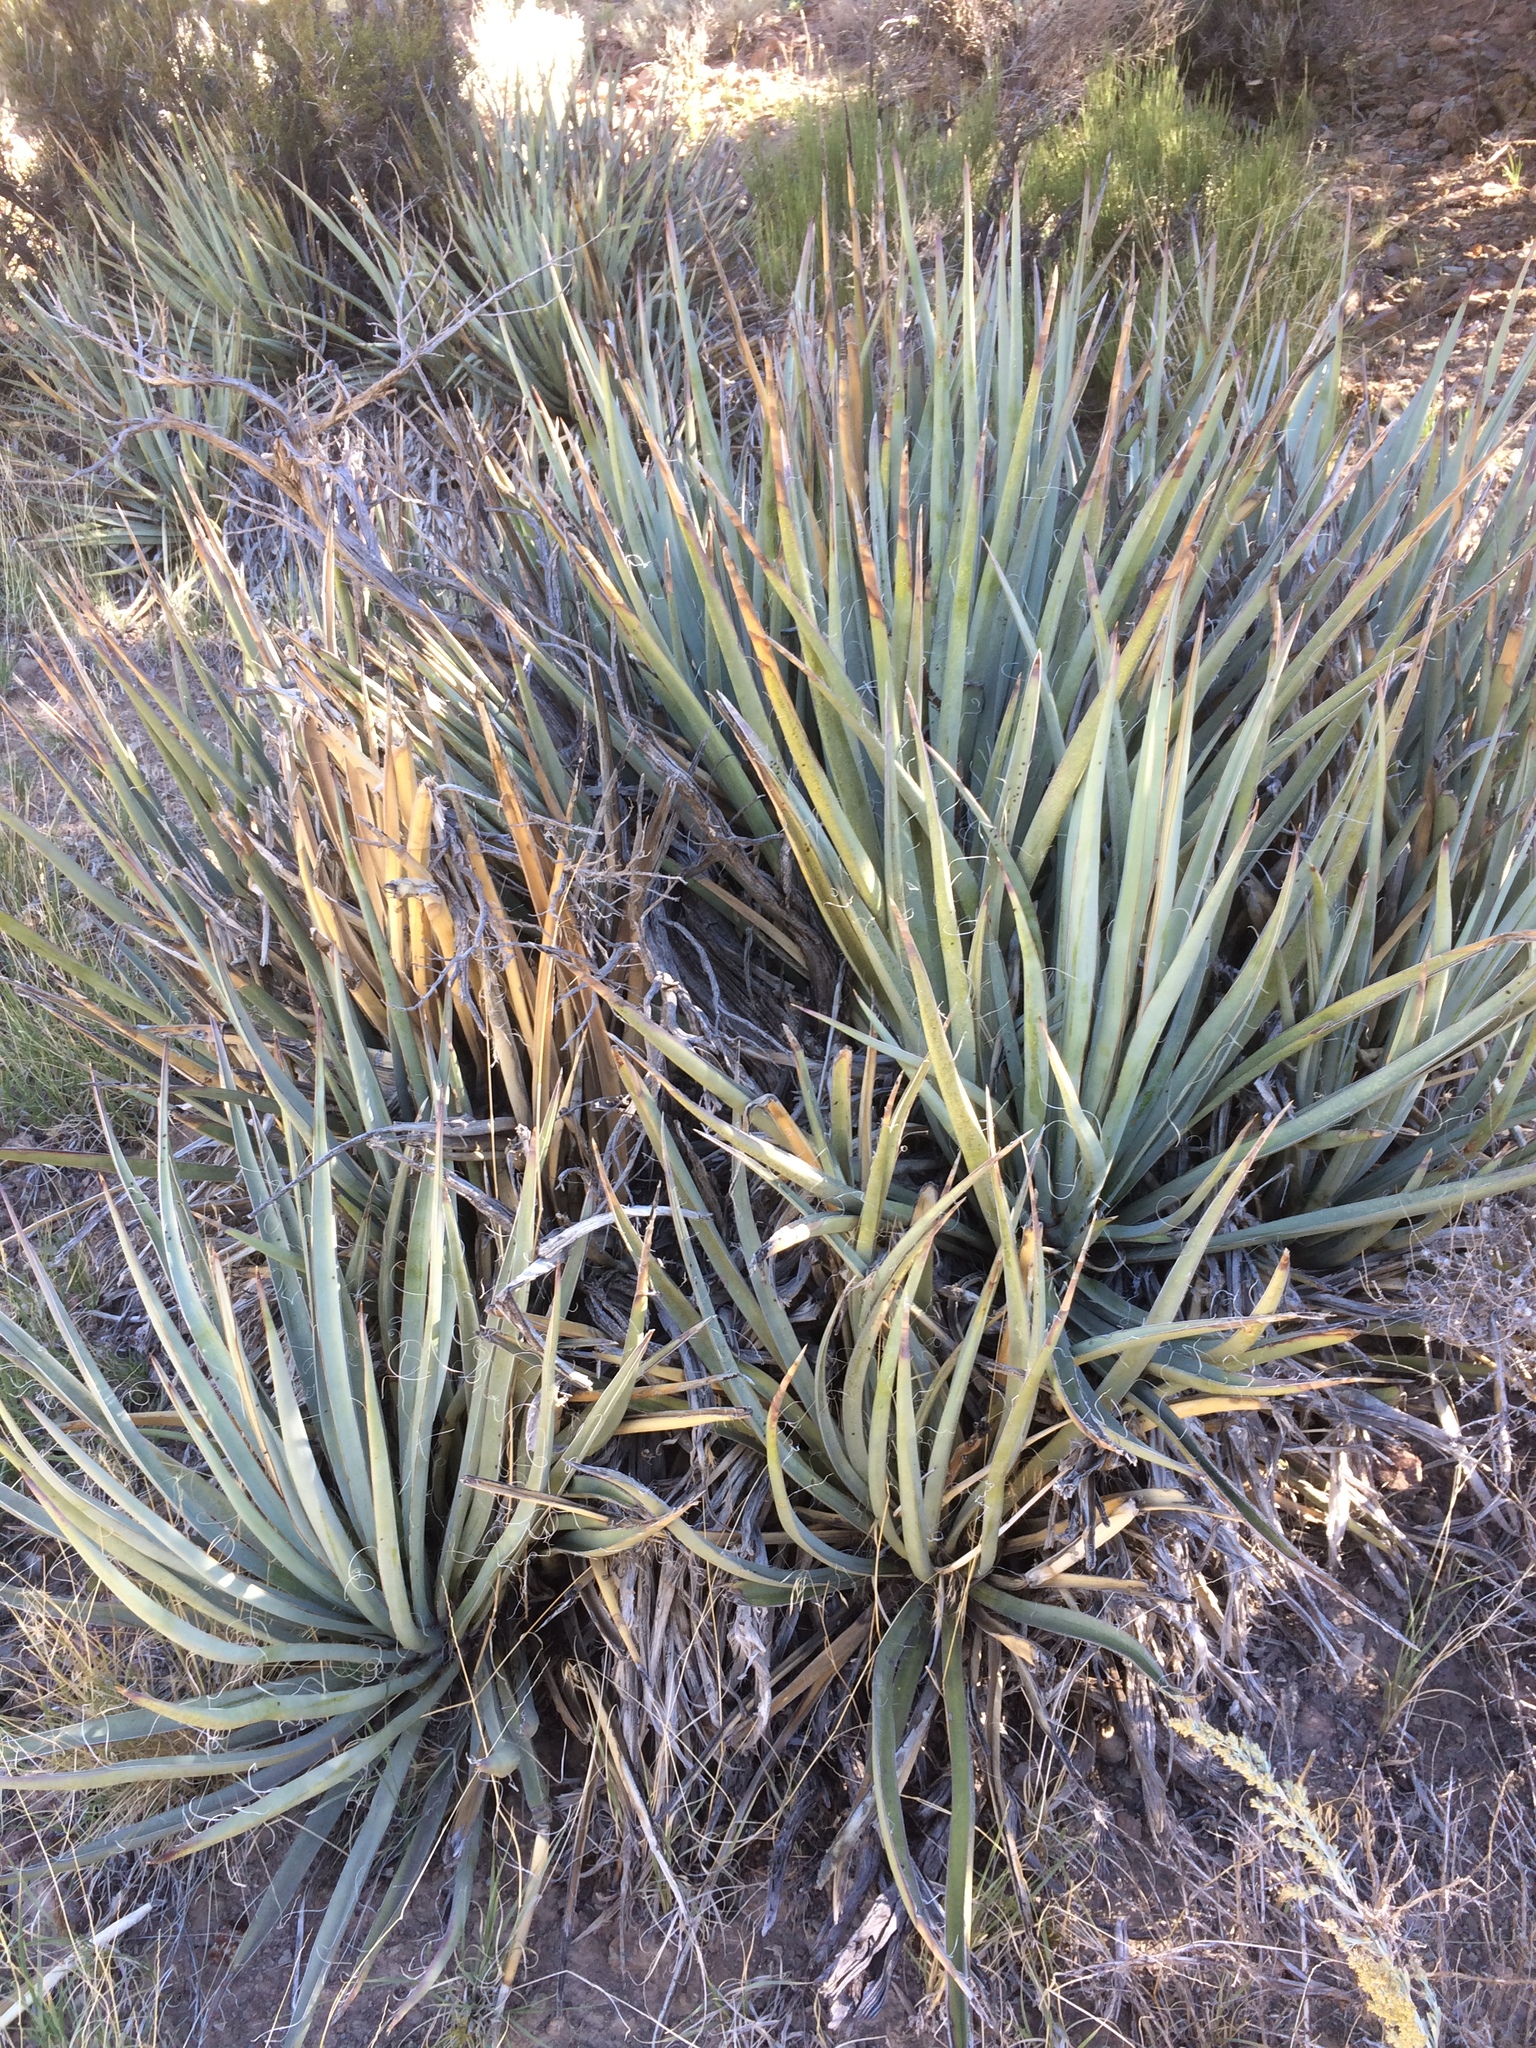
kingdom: Plantae
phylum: Tracheophyta
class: Liliopsida
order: Asparagales
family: Asparagaceae
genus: Yucca
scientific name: Yucca baccata
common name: Banana yucca
